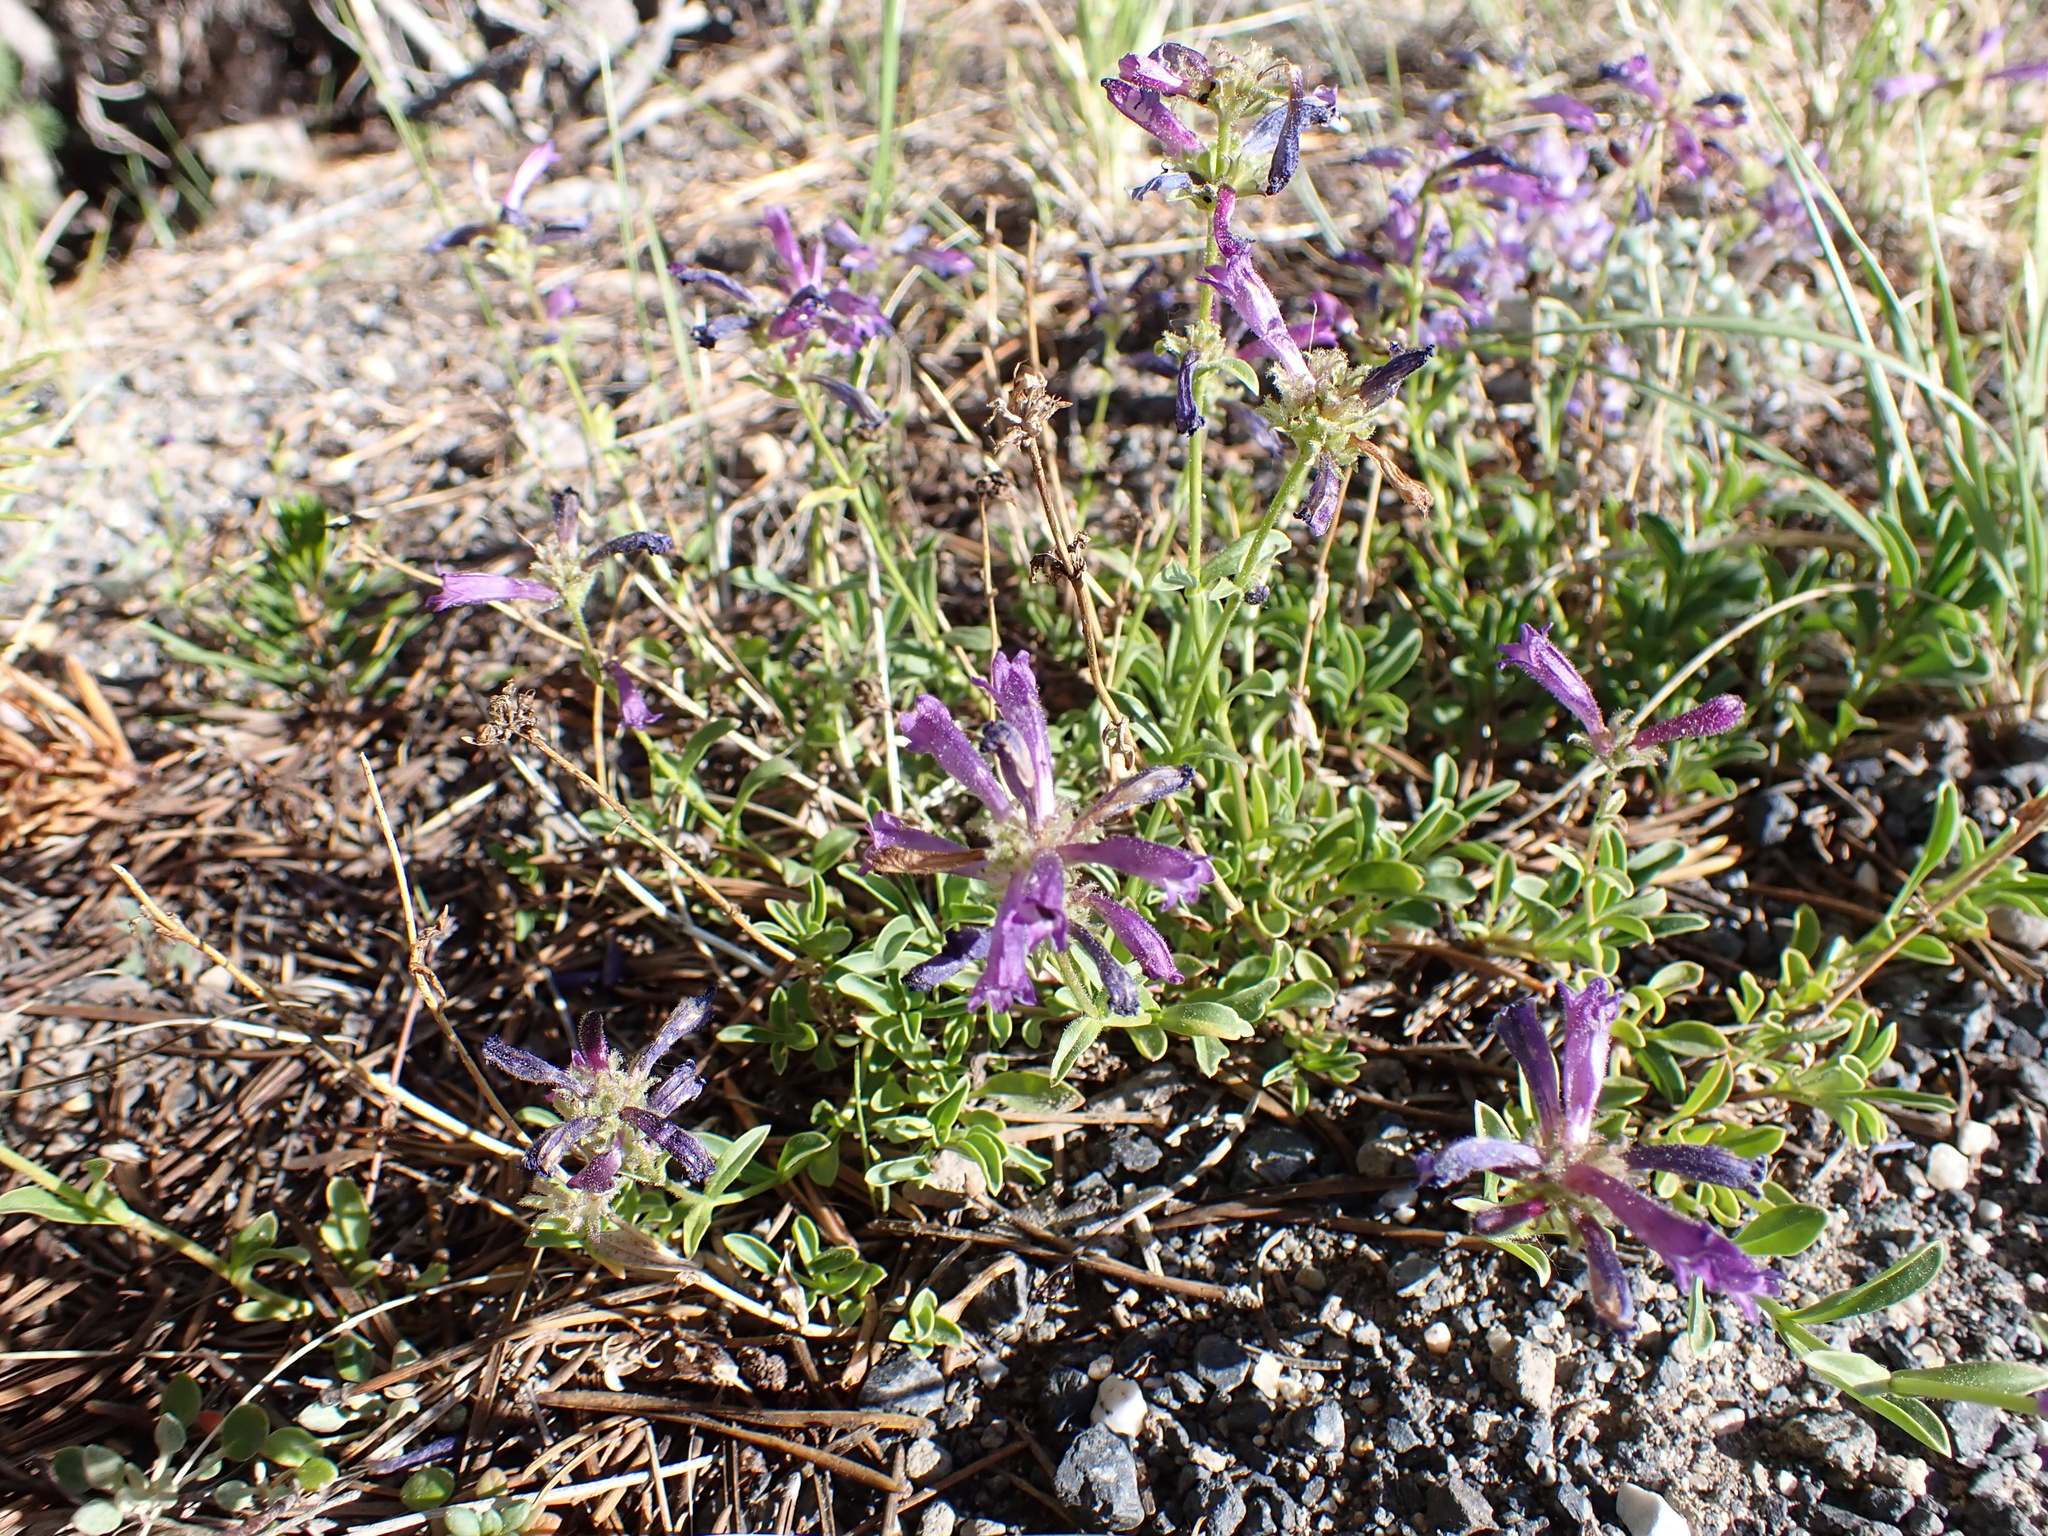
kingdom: Plantae
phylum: Tracheophyta
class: Magnoliopsida
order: Lamiales
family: Plantaginaceae
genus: Penstemon
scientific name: Penstemon heterodoxus
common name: Sierran penstemon
